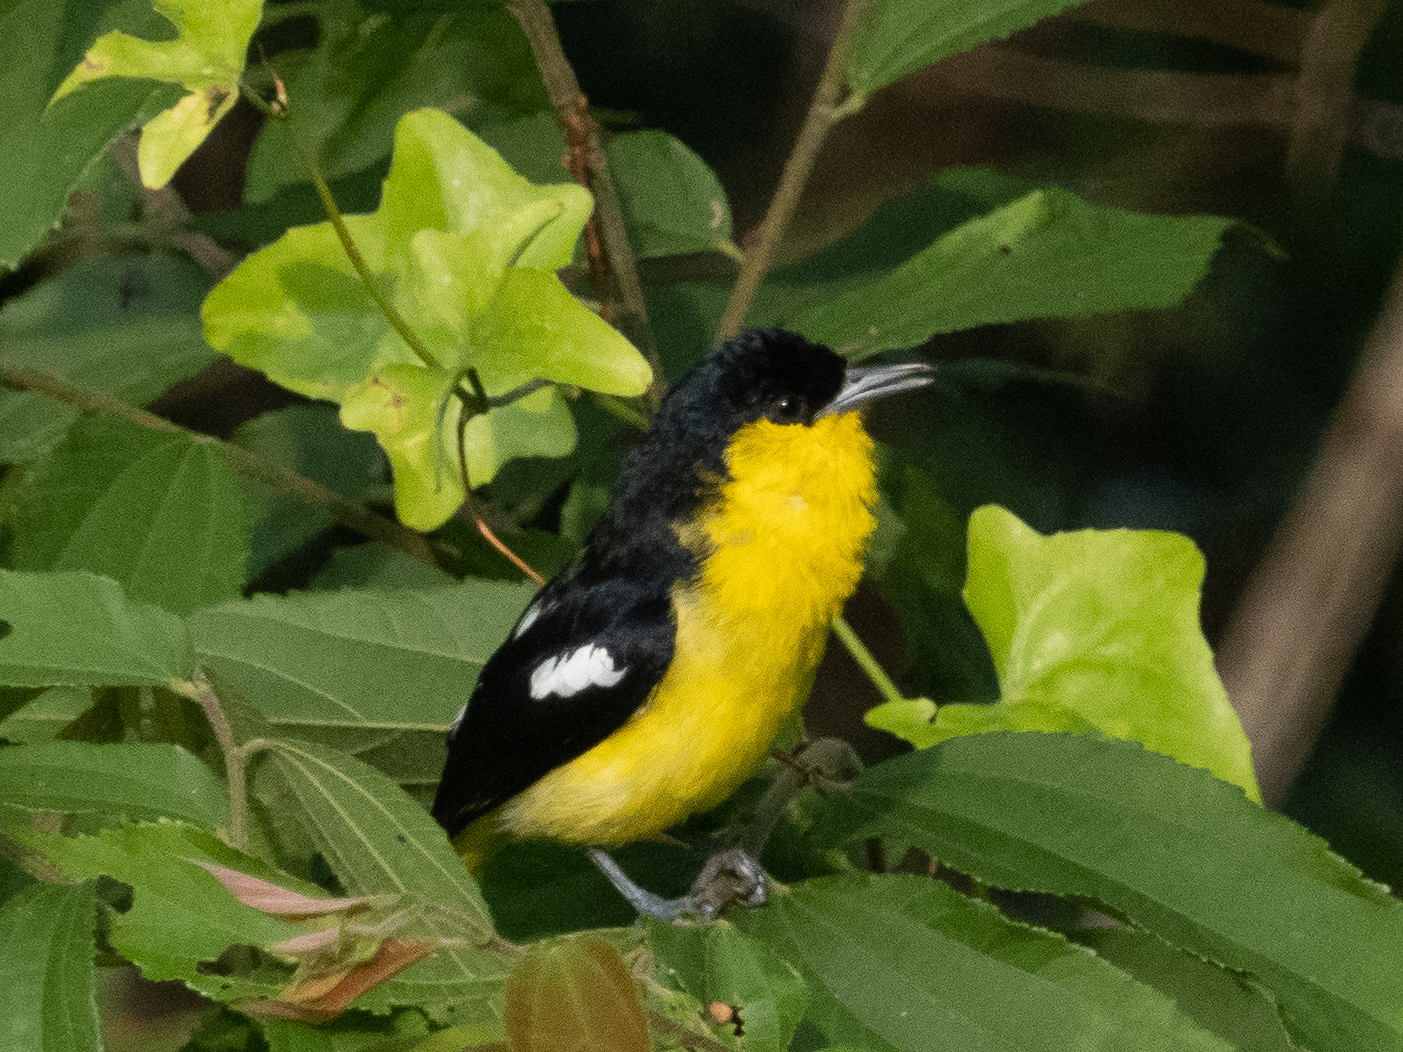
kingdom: Animalia
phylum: Chordata
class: Aves
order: Passeriformes
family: Aegithinidae
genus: Aegithina
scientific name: Aegithina tiphia
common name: Common iora
